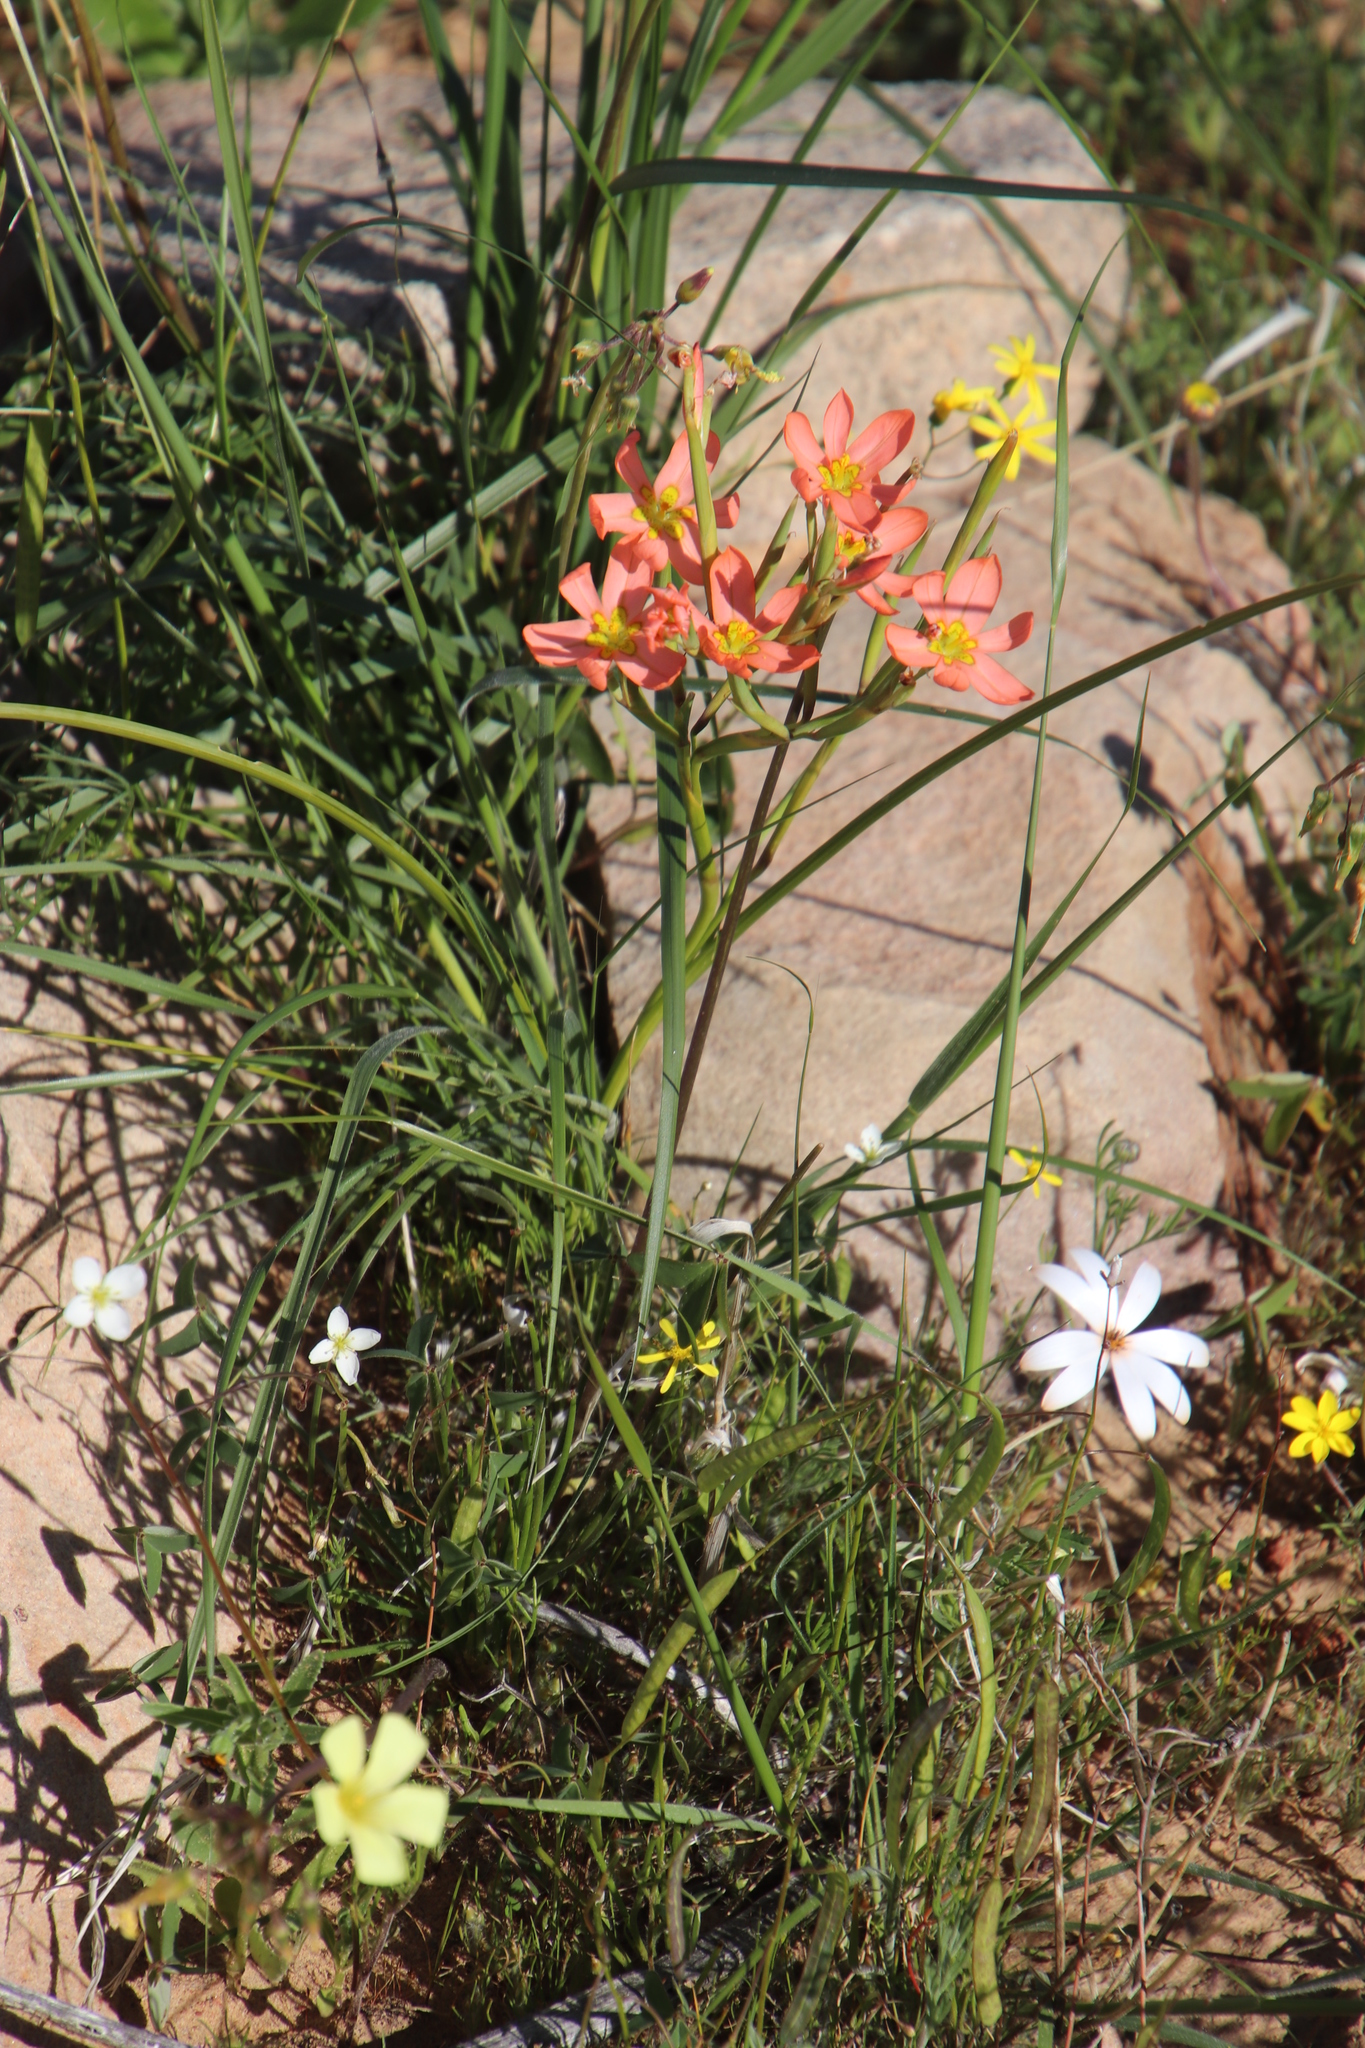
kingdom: Plantae
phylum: Tracheophyta
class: Liliopsida
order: Asparagales
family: Iridaceae
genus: Moraea
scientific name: Moraea miniata
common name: Two-leaf cape-tulip
